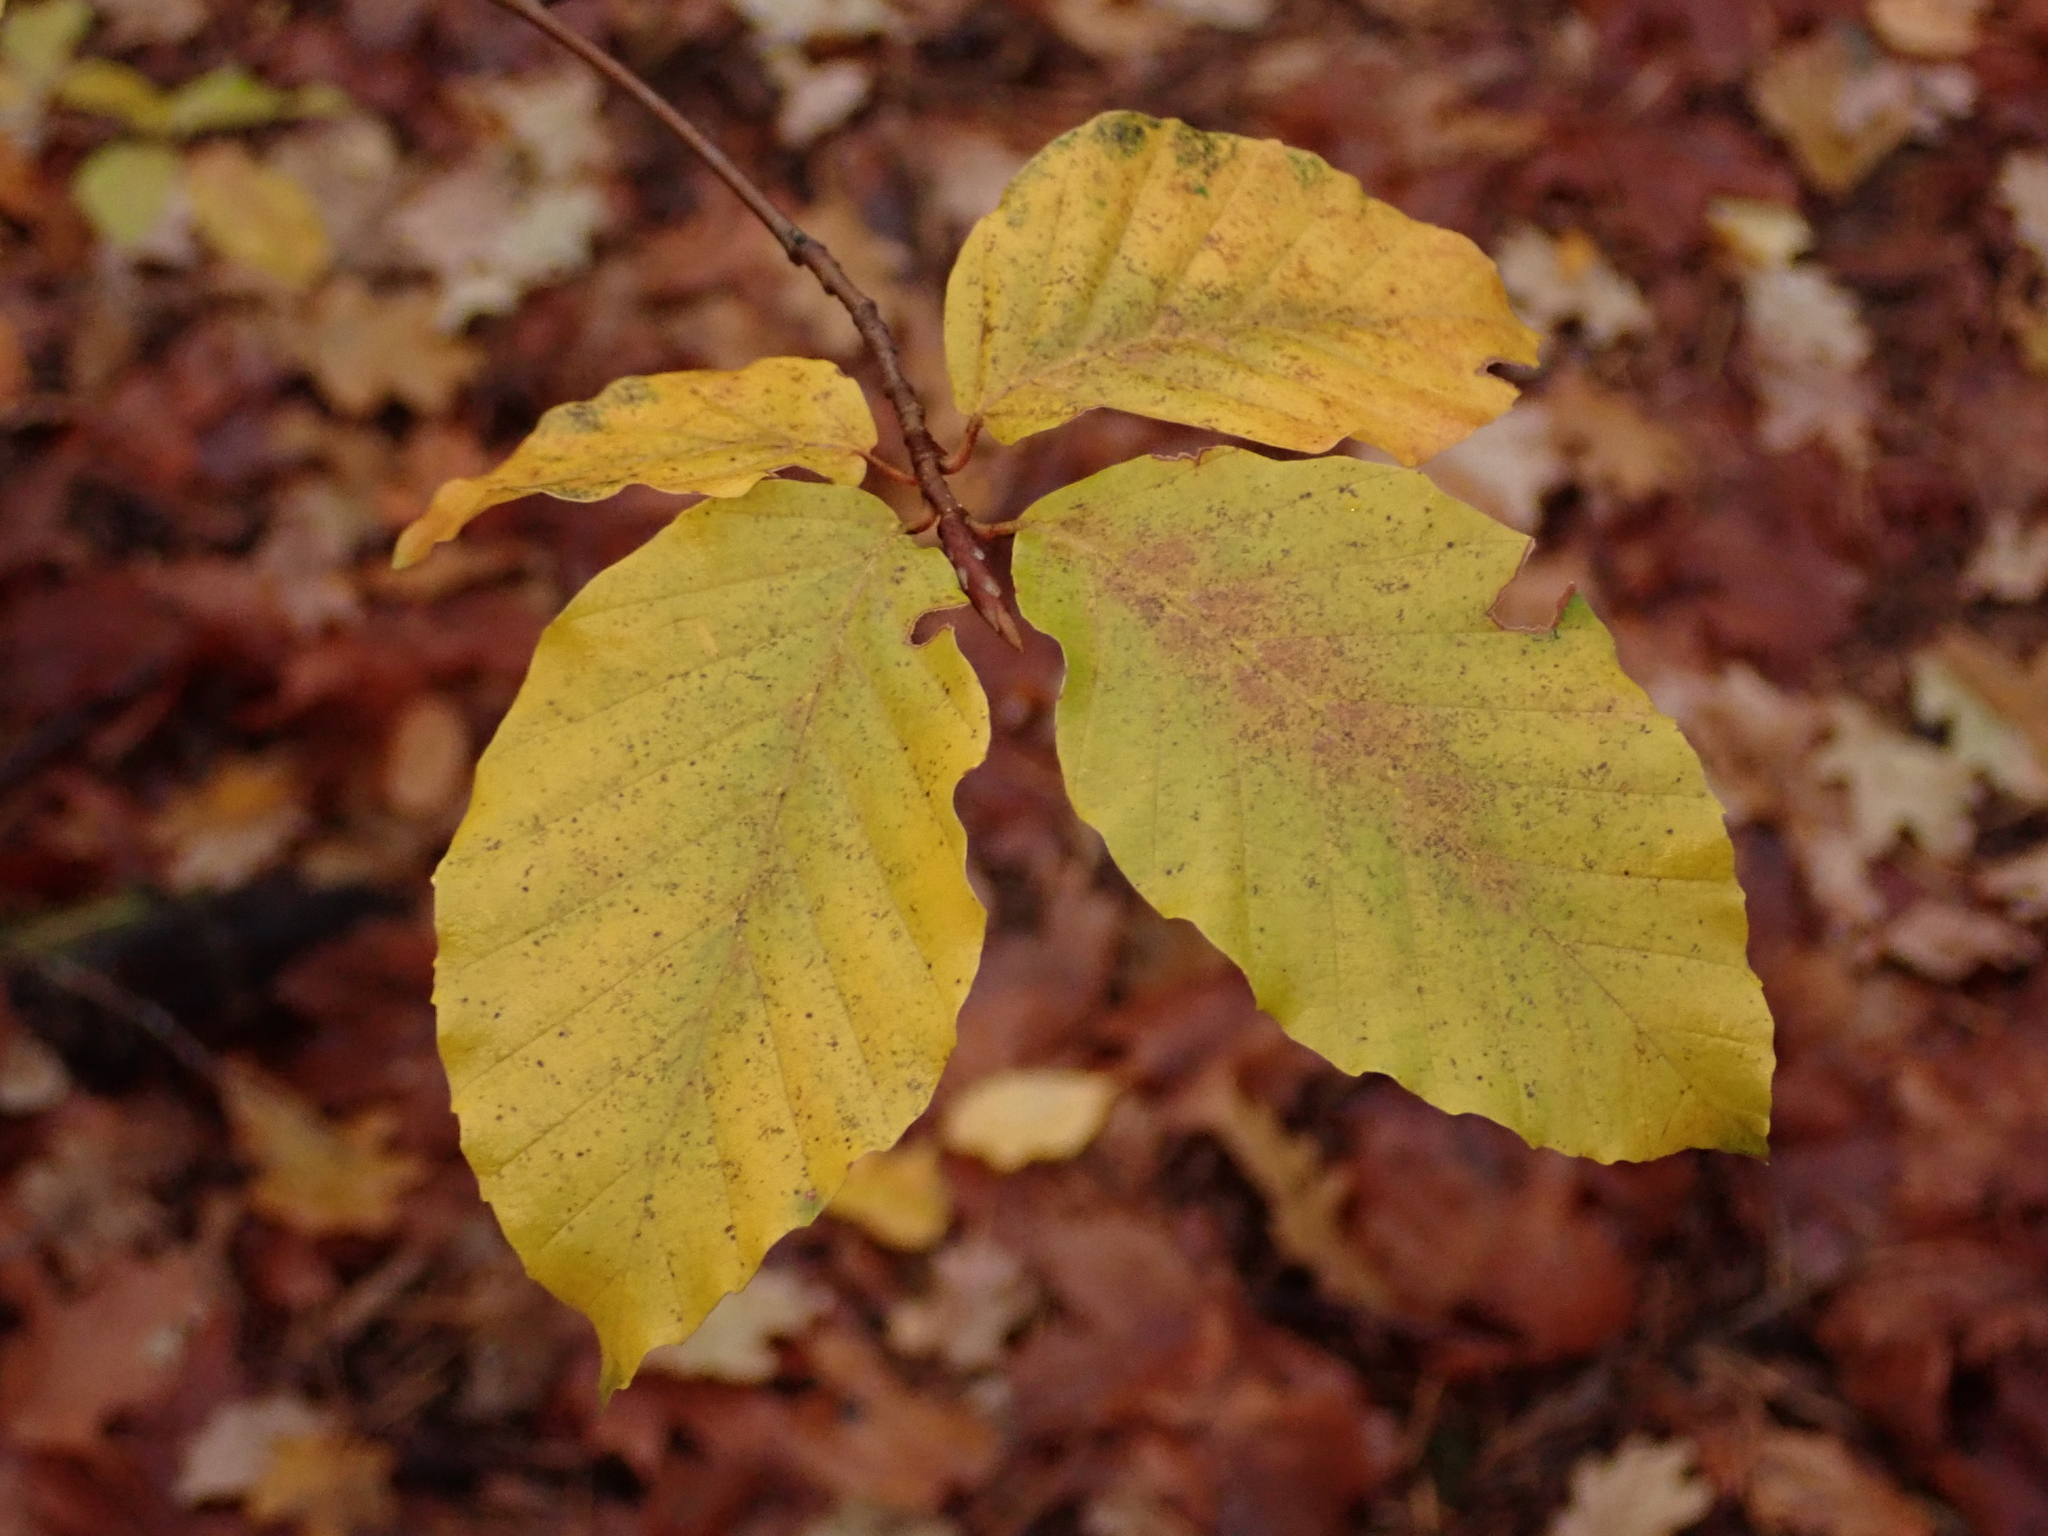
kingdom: Plantae
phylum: Tracheophyta
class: Magnoliopsida
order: Fagales
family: Fagaceae
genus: Fagus
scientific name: Fagus sylvatica
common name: Beech
